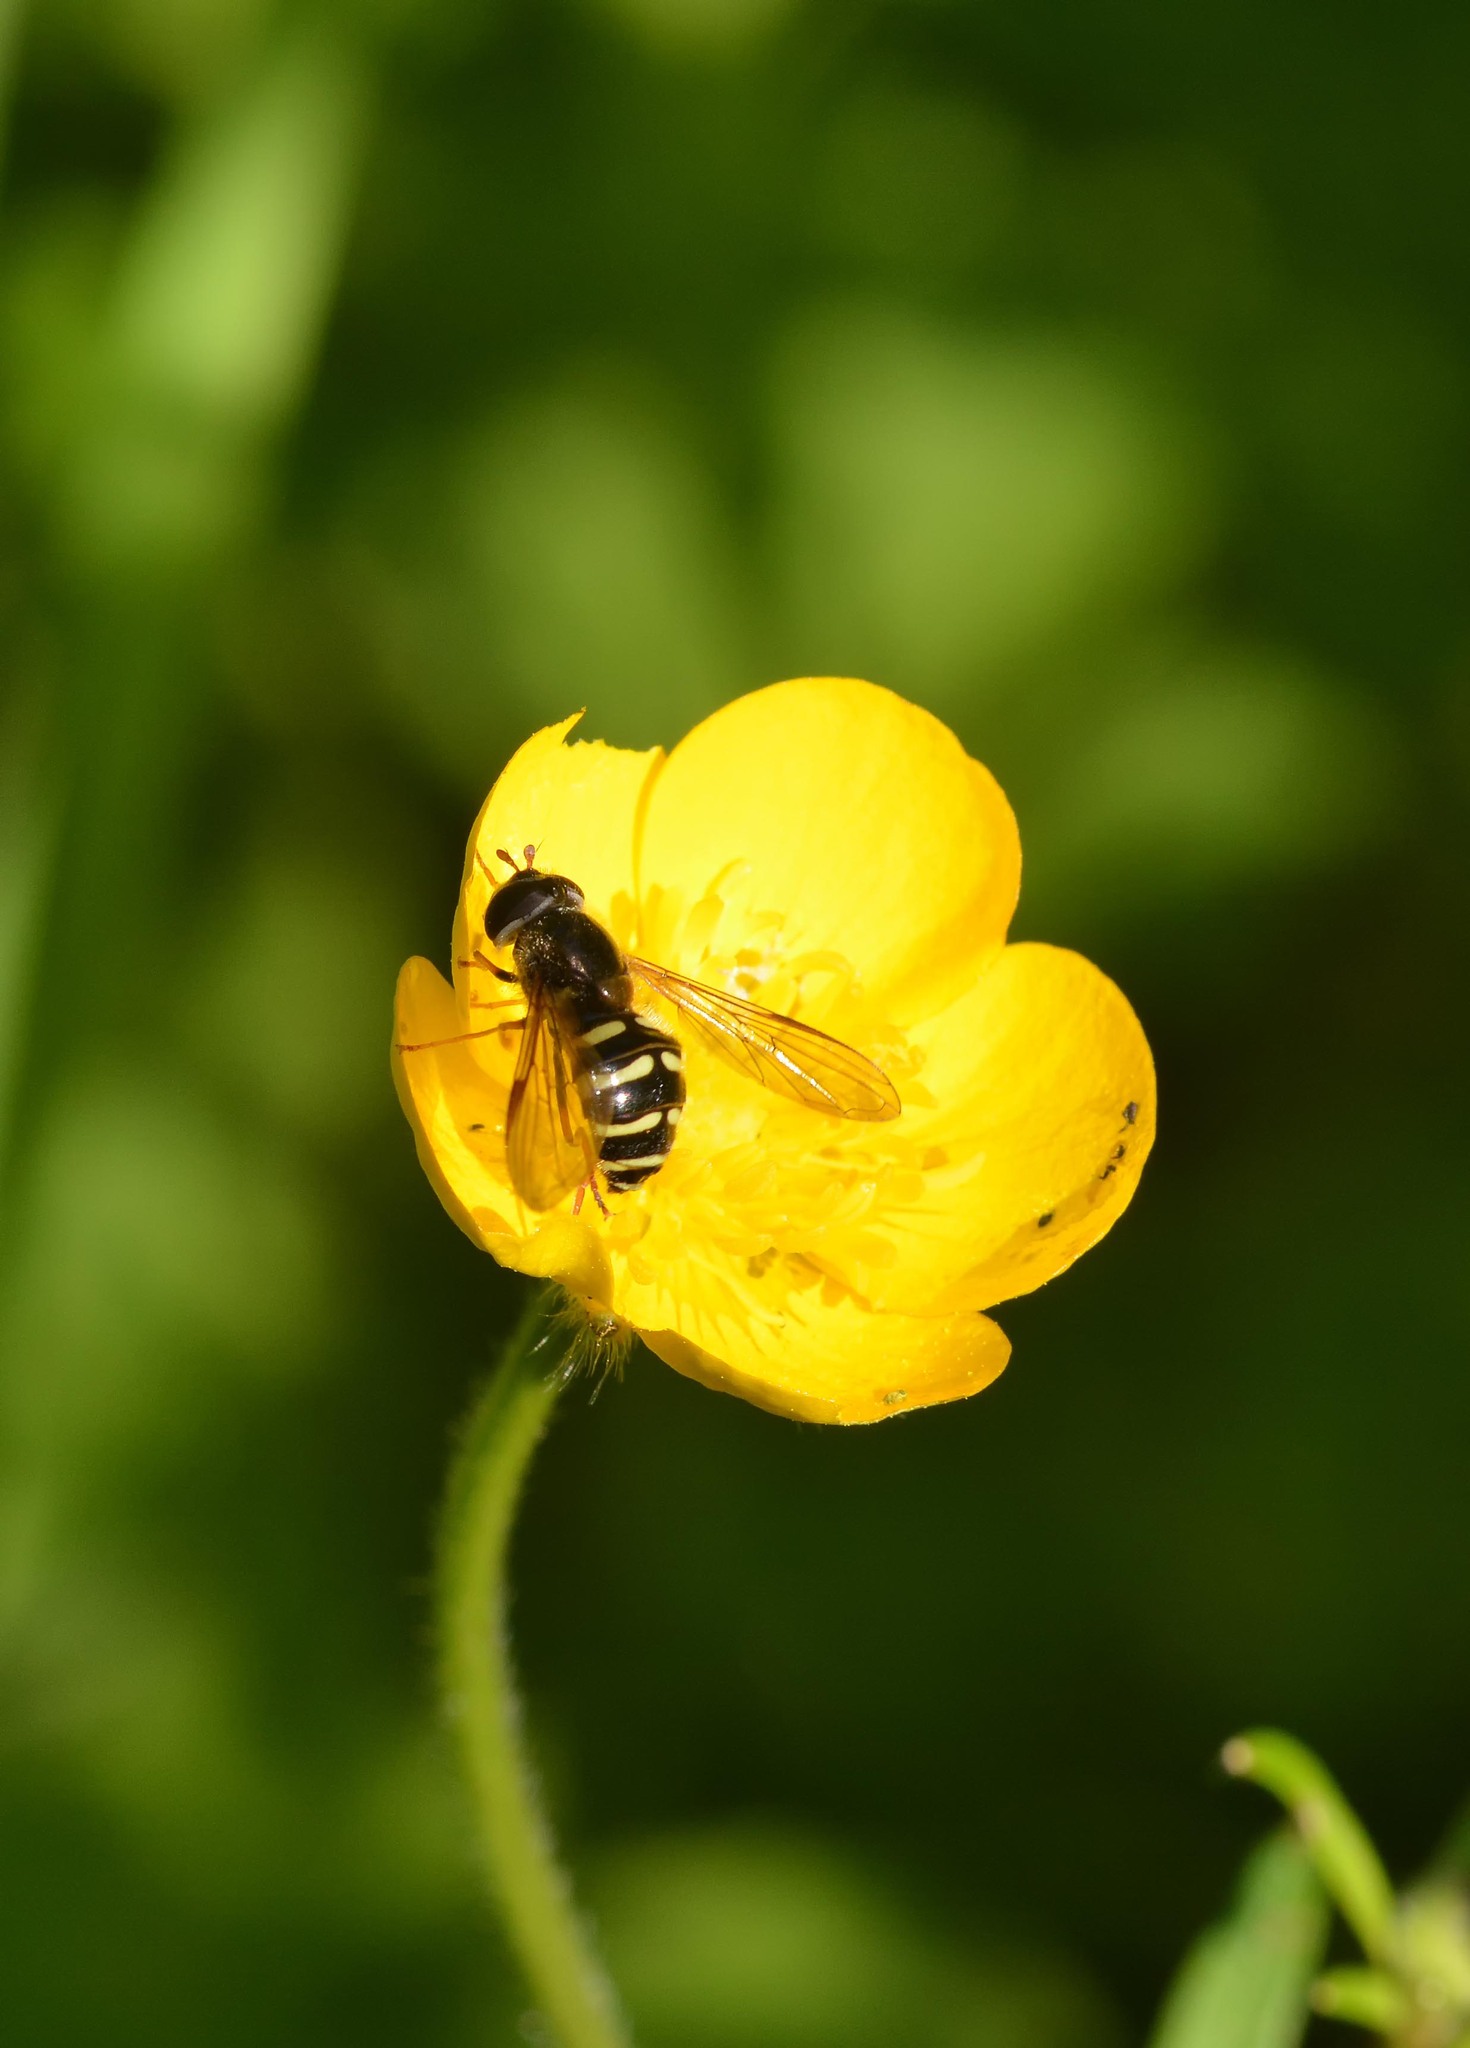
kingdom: Animalia
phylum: Arthropoda
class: Insecta
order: Diptera
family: Syrphidae
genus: Dasysyrphus
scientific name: Dasysyrphus
